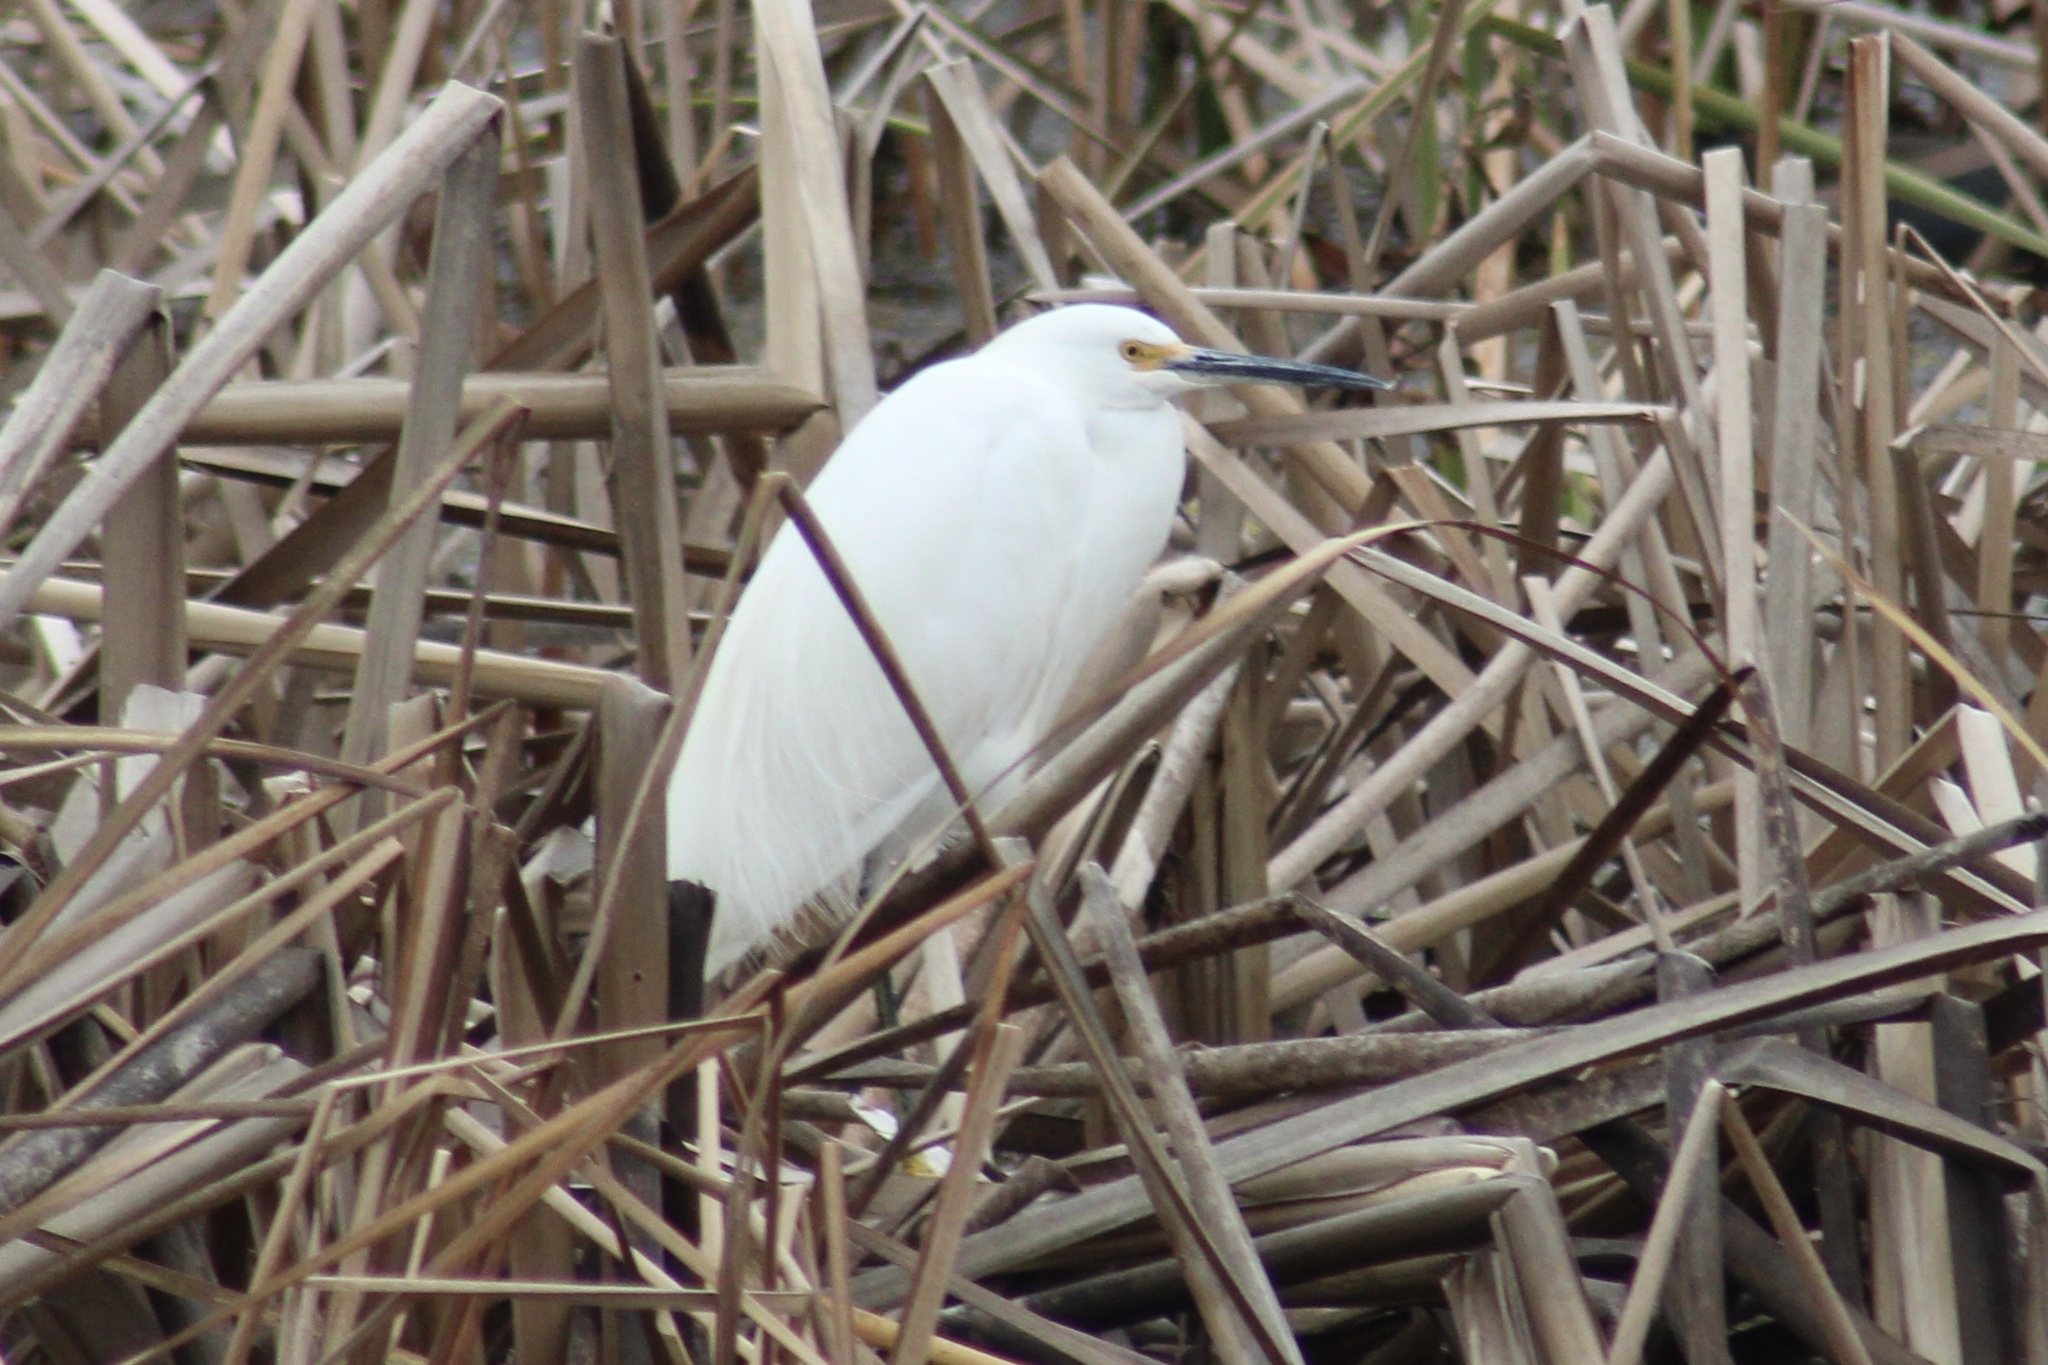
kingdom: Animalia
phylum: Chordata
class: Aves
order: Pelecaniformes
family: Ardeidae
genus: Egretta
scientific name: Egretta thula
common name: Snowy egret
